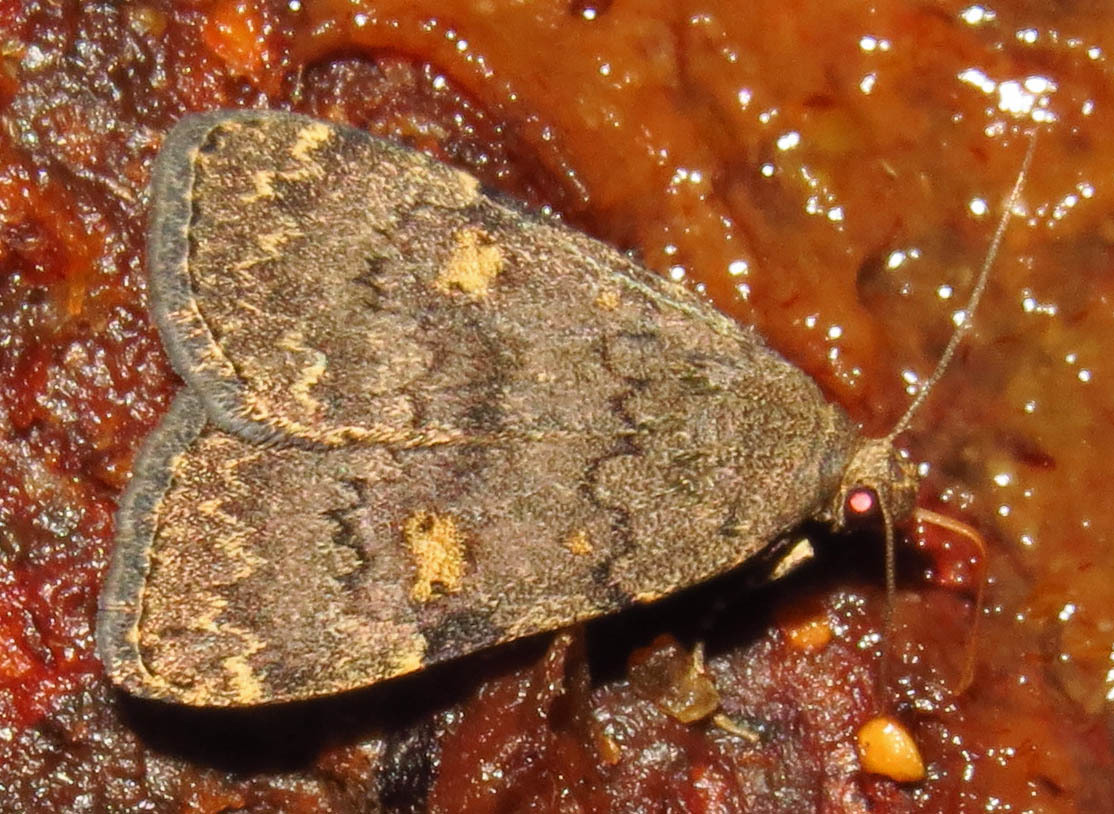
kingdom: Animalia
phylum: Arthropoda
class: Insecta
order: Lepidoptera
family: Erebidae
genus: Idia
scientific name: Idia aemula
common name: Common idia moth
